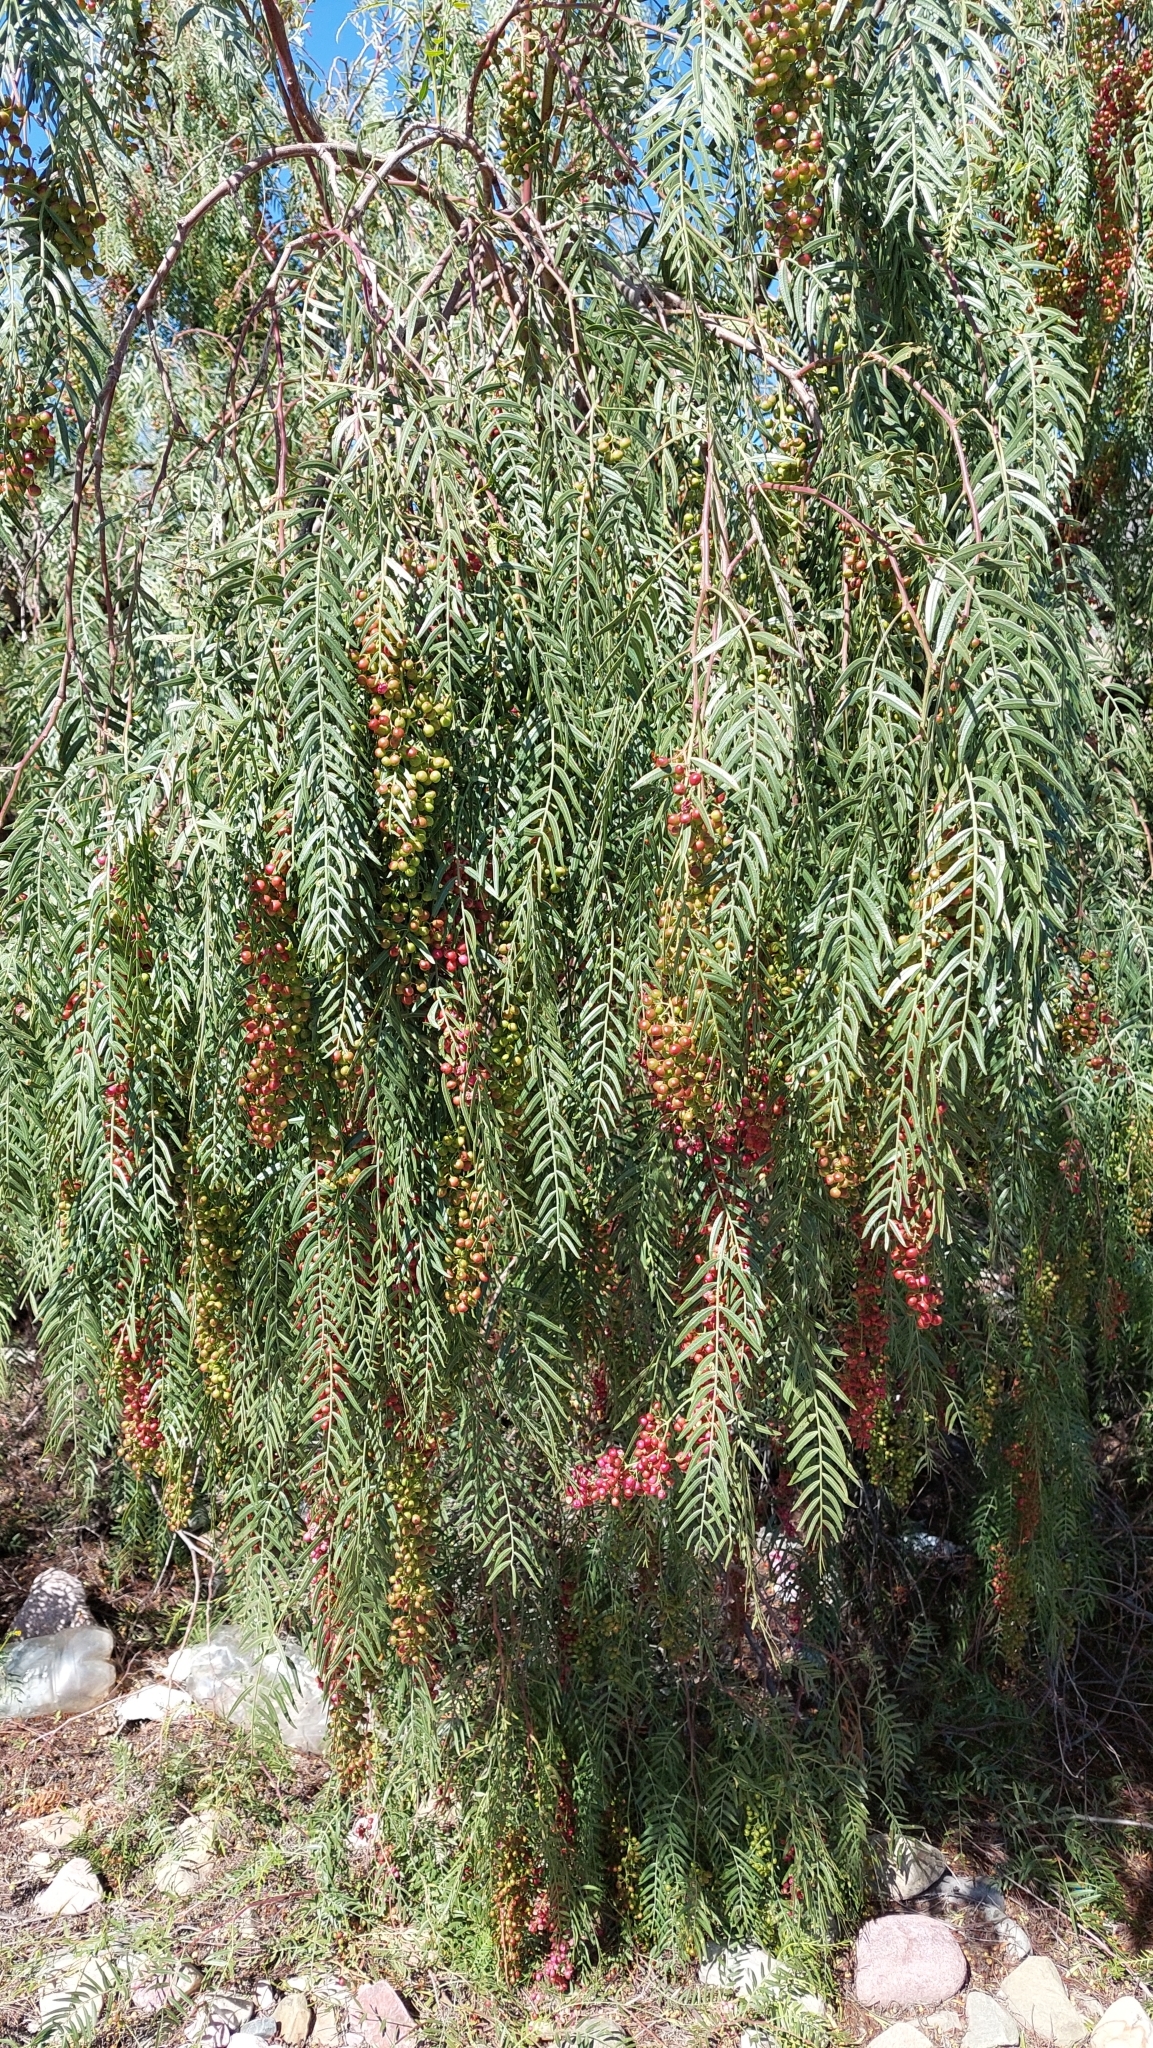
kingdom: Plantae
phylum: Tracheophyta
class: Magnoliopsida
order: Sapindales
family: Anacardiaceae
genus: Schinus
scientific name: Schinus areira
